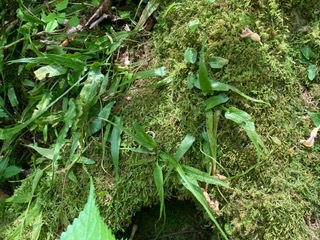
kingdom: Plantae
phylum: Tracheophyta
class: Polypodiopsida
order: Polypodiales
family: Aspleniaceae
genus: Asplenium
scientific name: Asplenium rhizophyllum
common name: Walking fern
